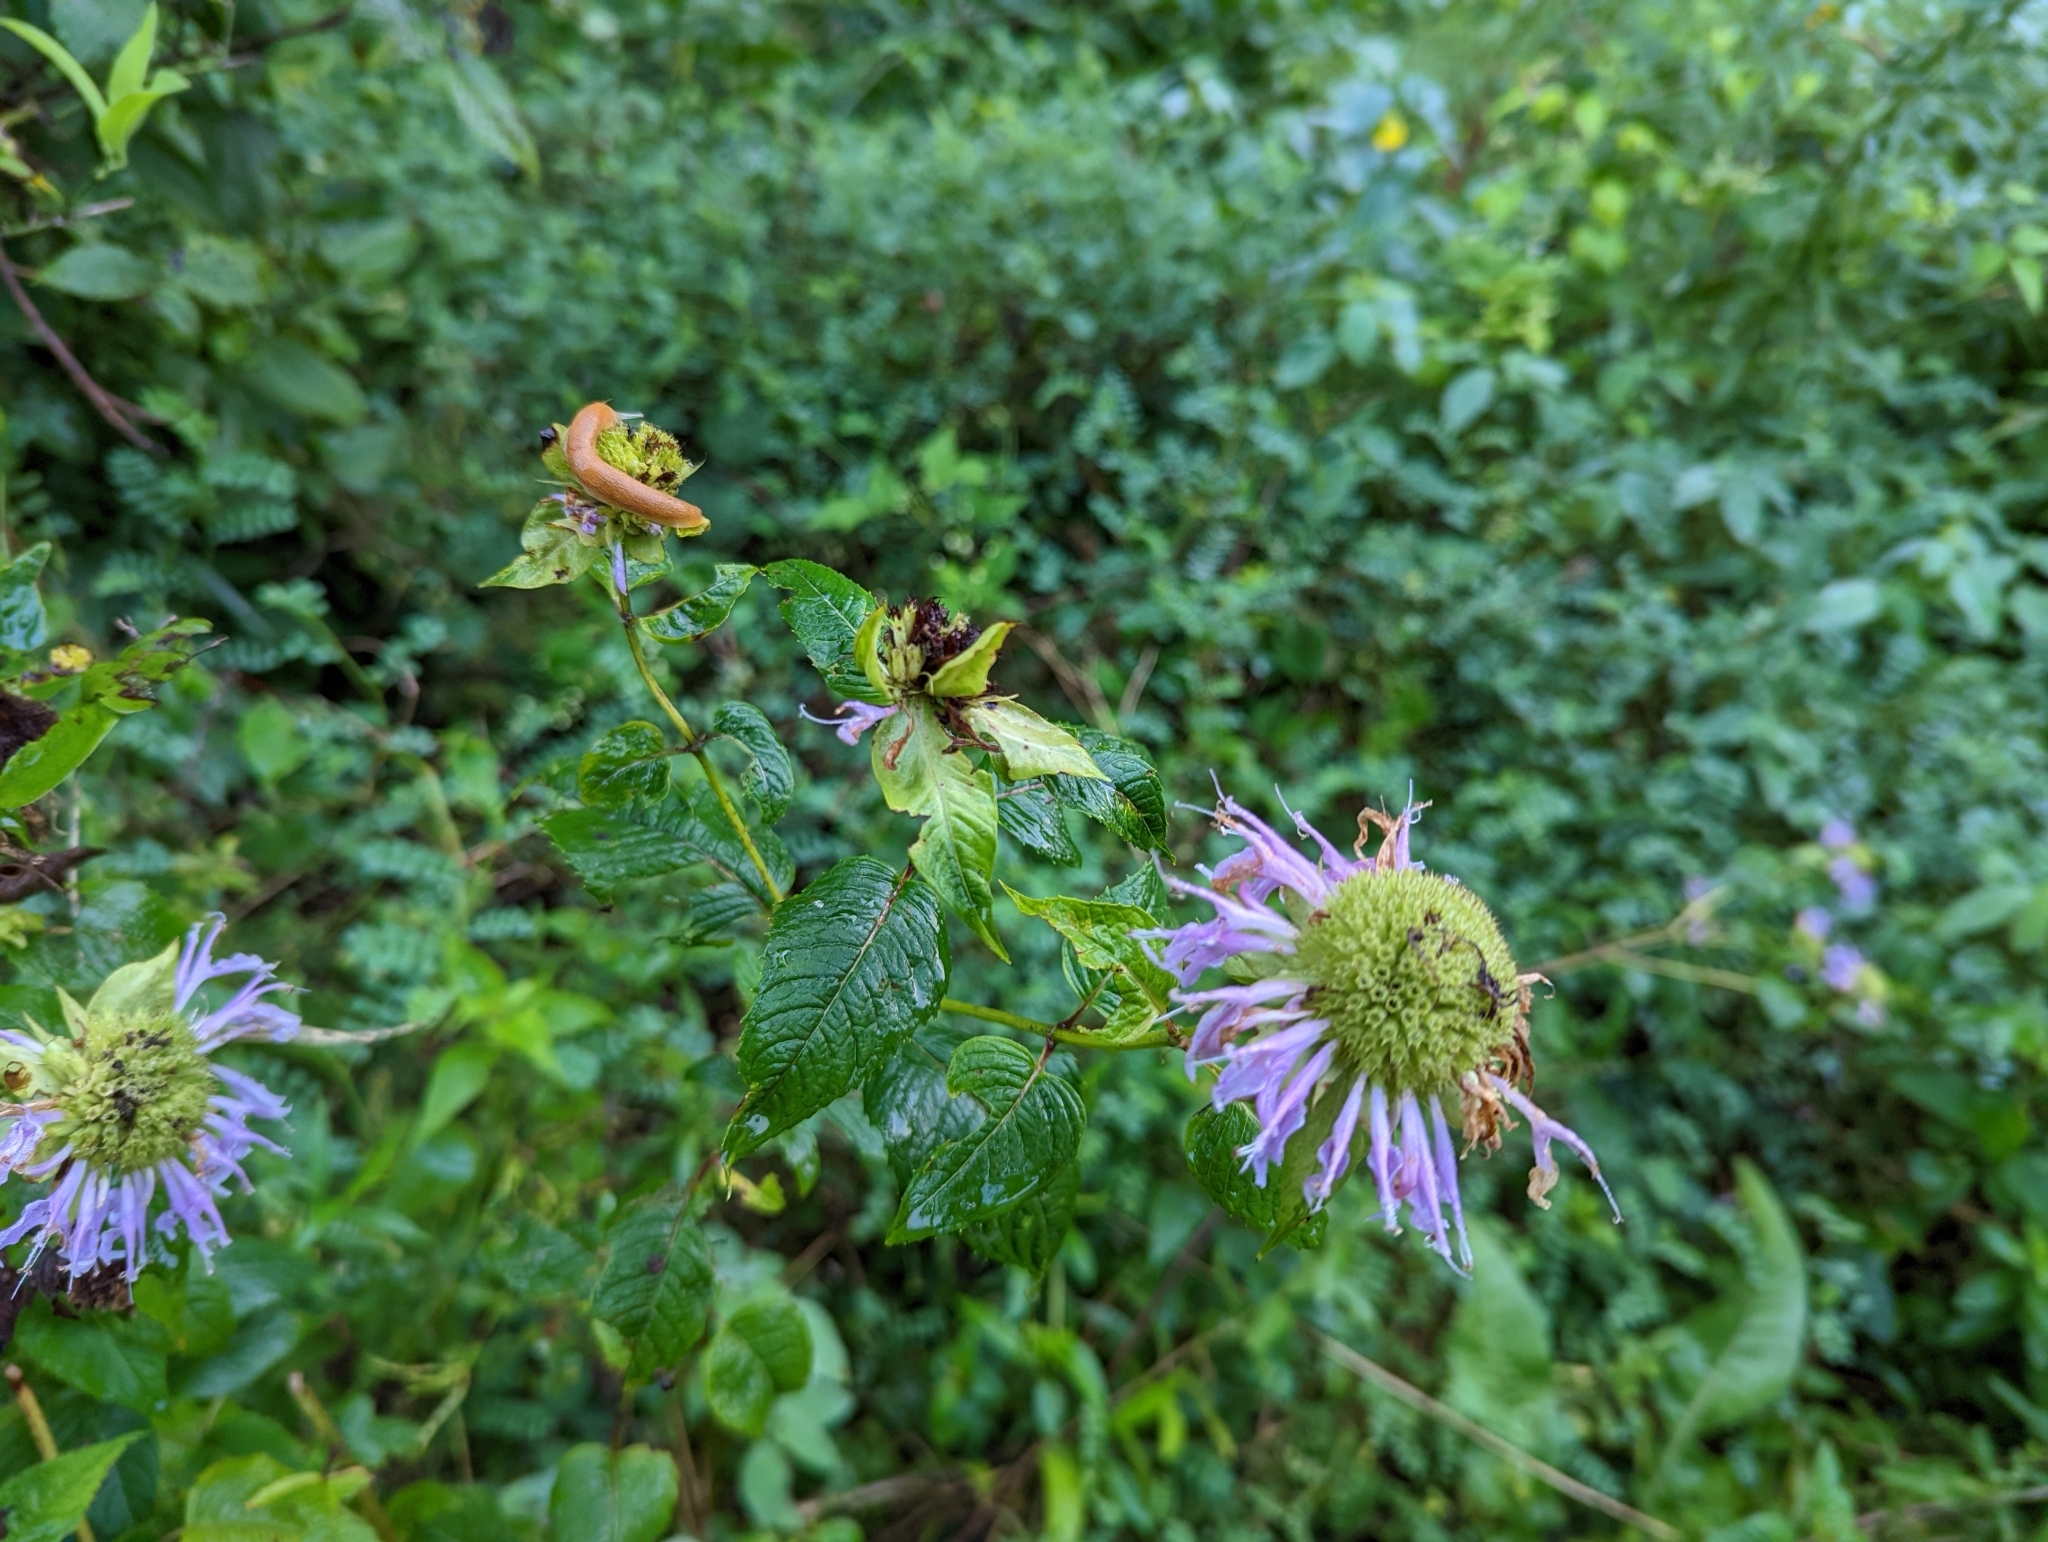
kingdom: Plantae
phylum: Tracheophyta
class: Magnoliopsida
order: Lamiales
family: Lamiaceae
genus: Monarda
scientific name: Monarda fistulosa
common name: Purple beebalm
